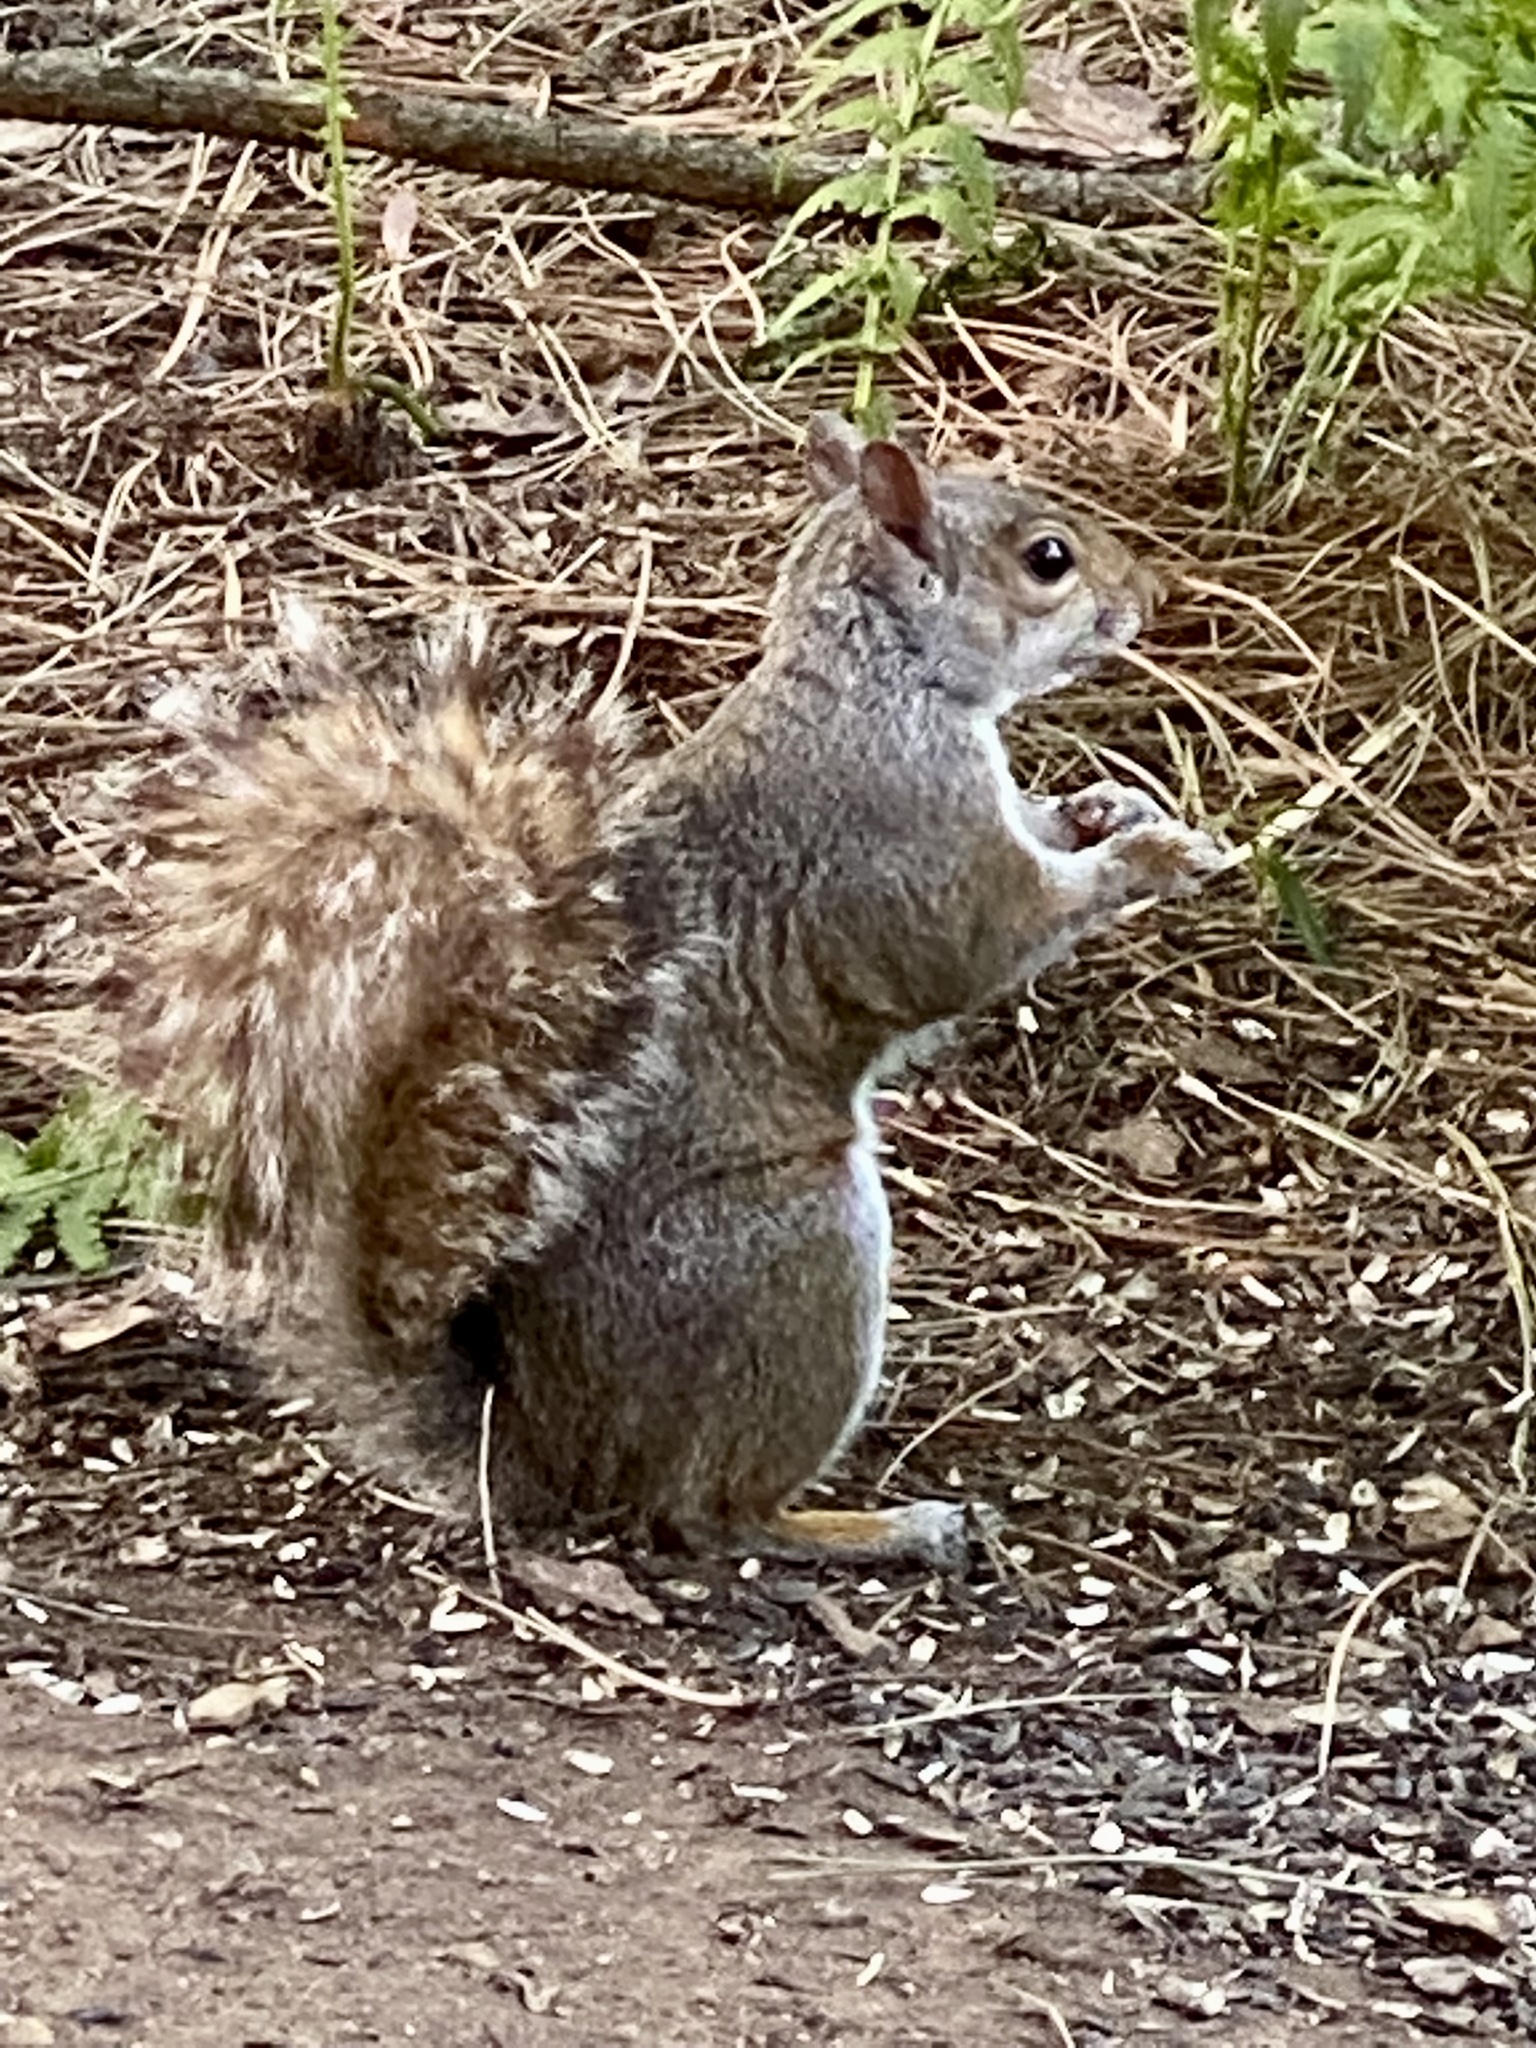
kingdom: Animalia
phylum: Chordata
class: Mammalia
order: Rodentia
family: Sciuridae
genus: Sciurus
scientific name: Sciurus carolinensis
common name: Eastern gray squirrel
